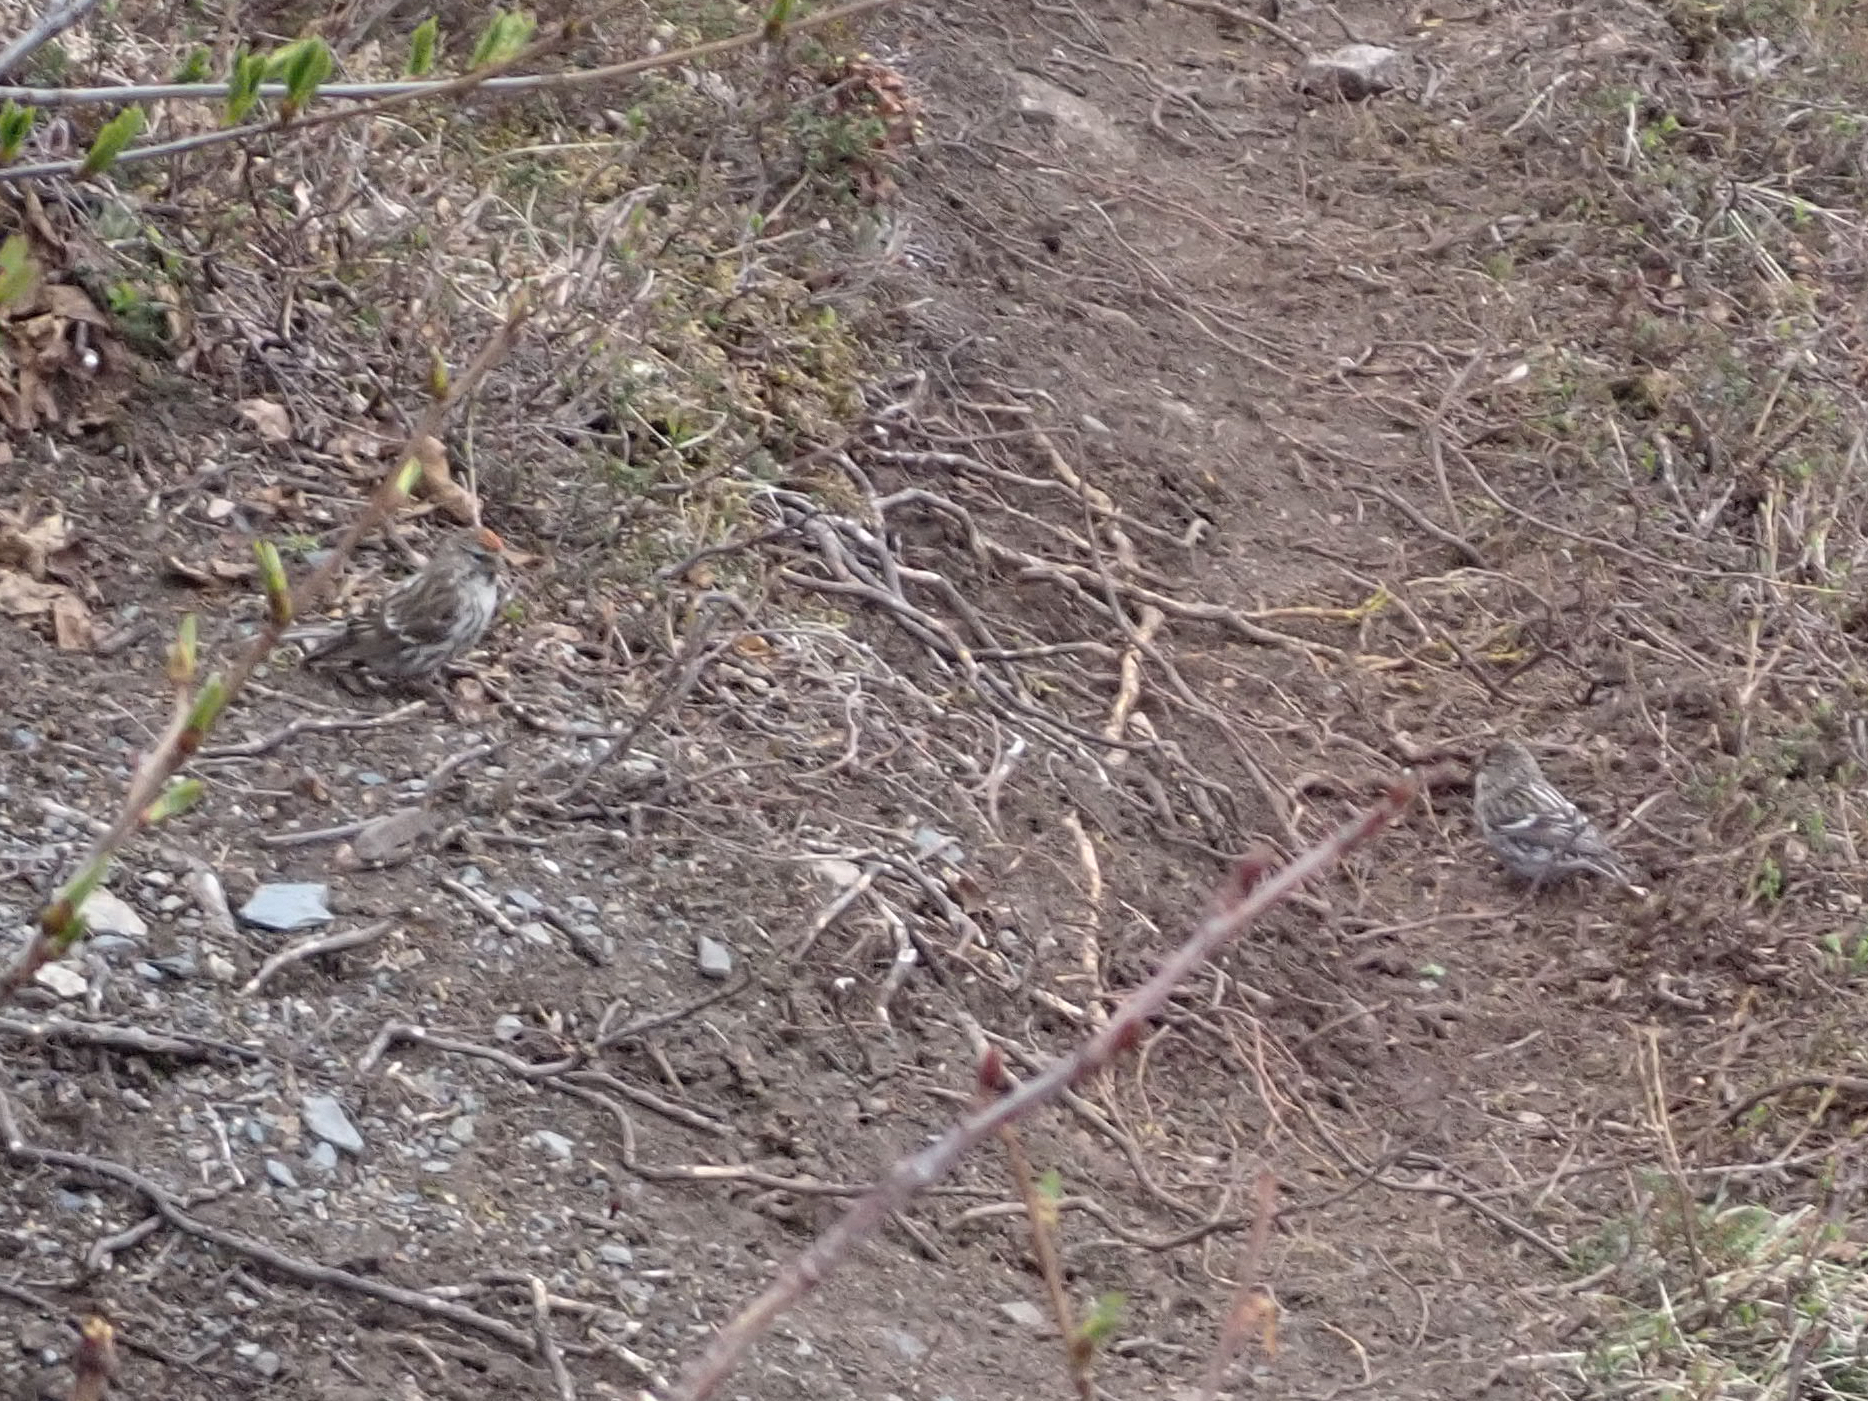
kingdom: Animalia
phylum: Chordata
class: Aves
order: Passeriformes
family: Fringillidae
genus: Acanthis
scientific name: Acanthis flammea
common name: Common redpoll
